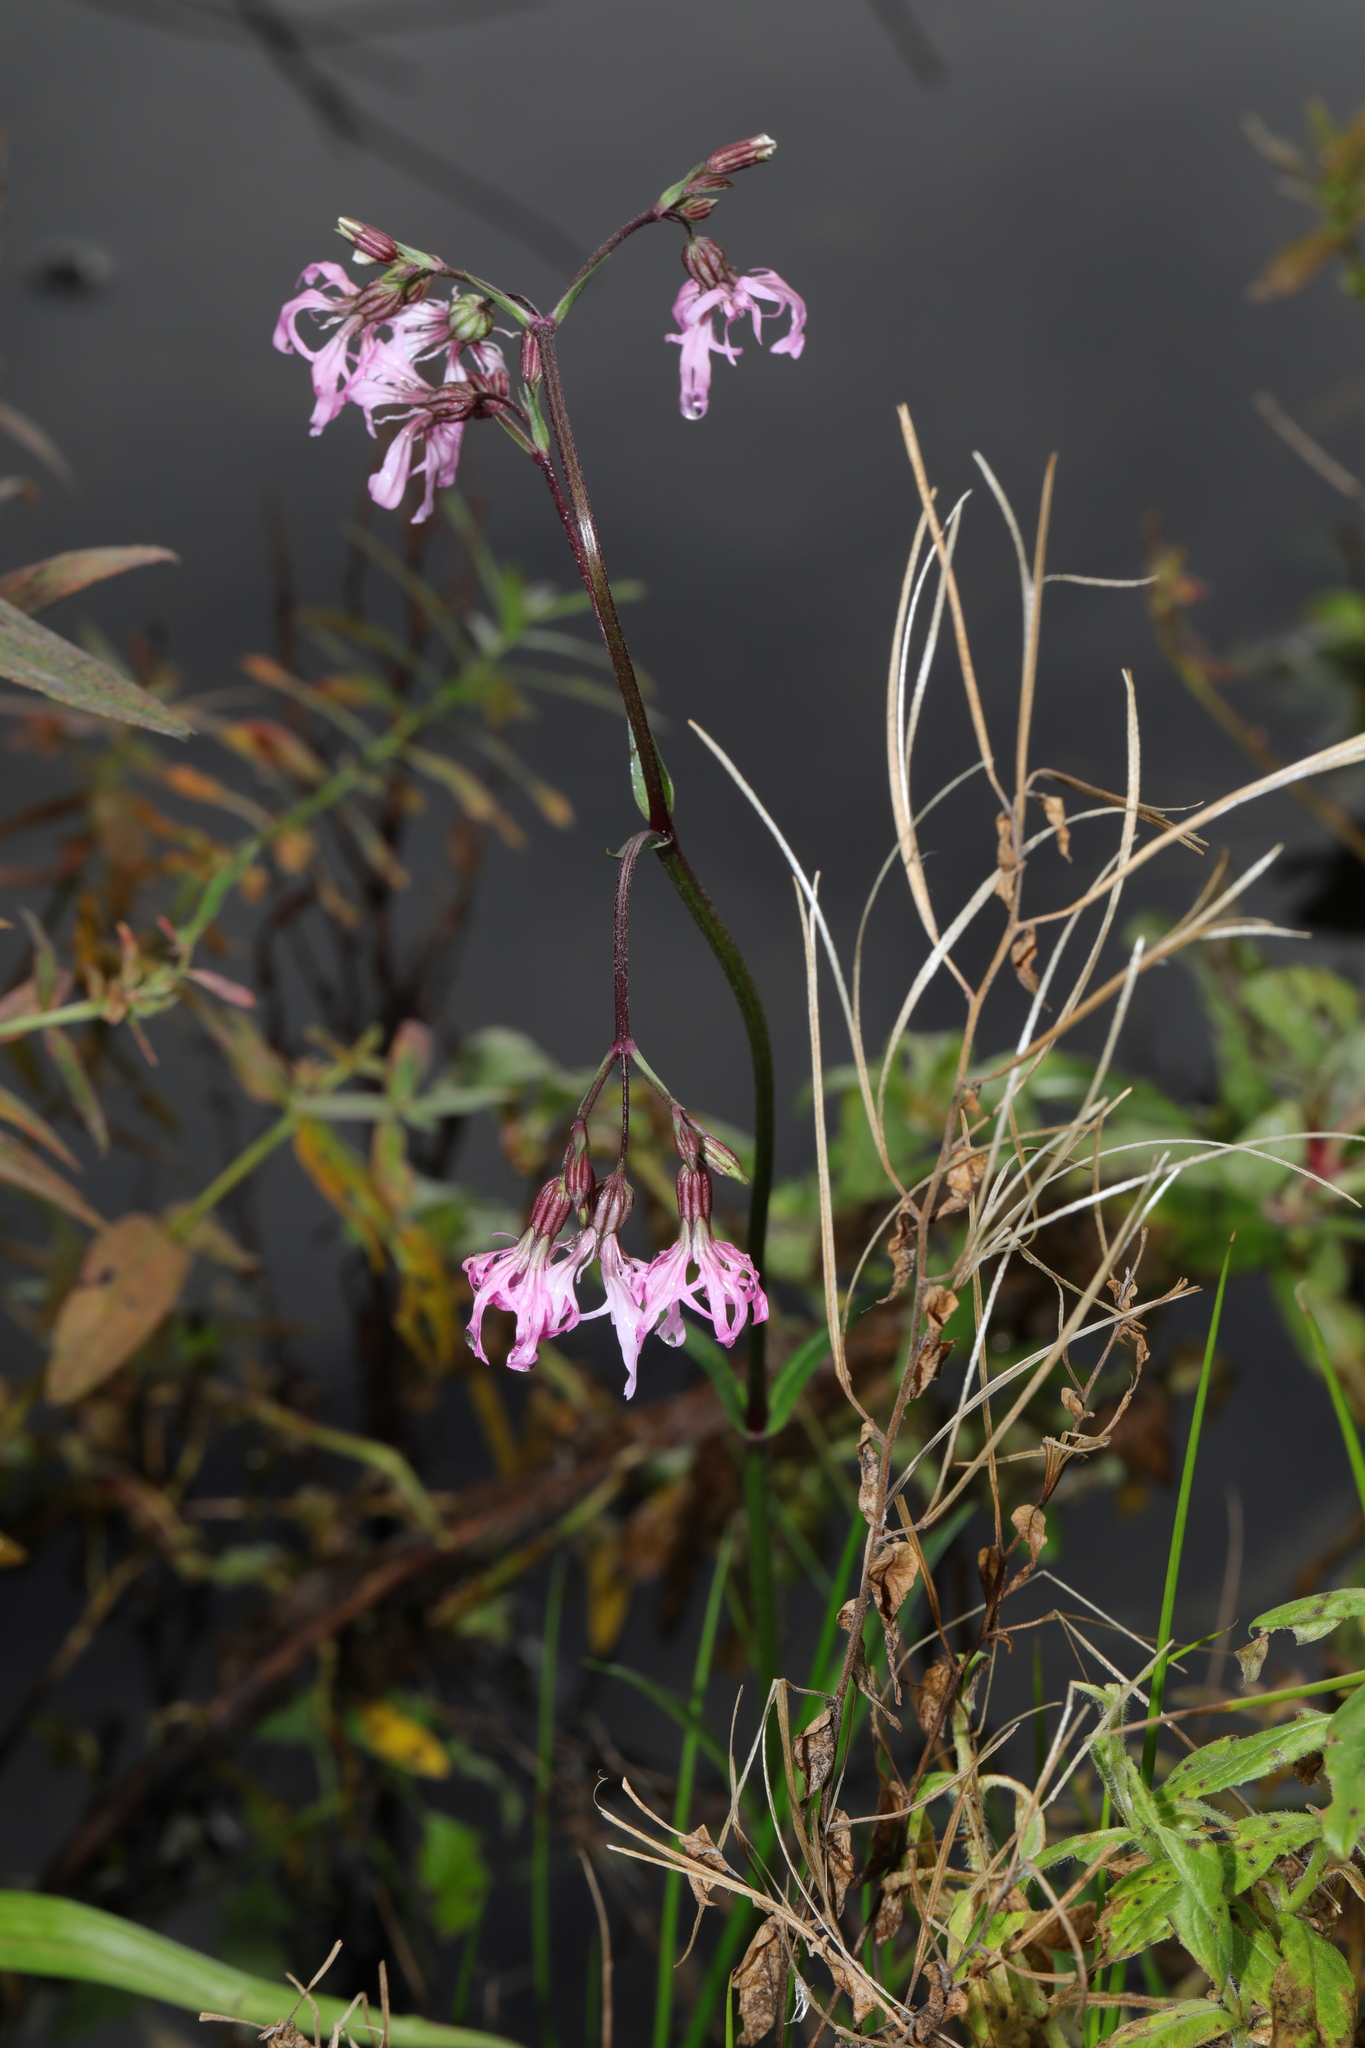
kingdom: Plantae
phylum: Tracheophyta
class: Magnoliopsida
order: Caryophyllales
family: Caryophyllaceae
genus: Silene
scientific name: Silene flos-cuculi
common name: Ragged-robin
